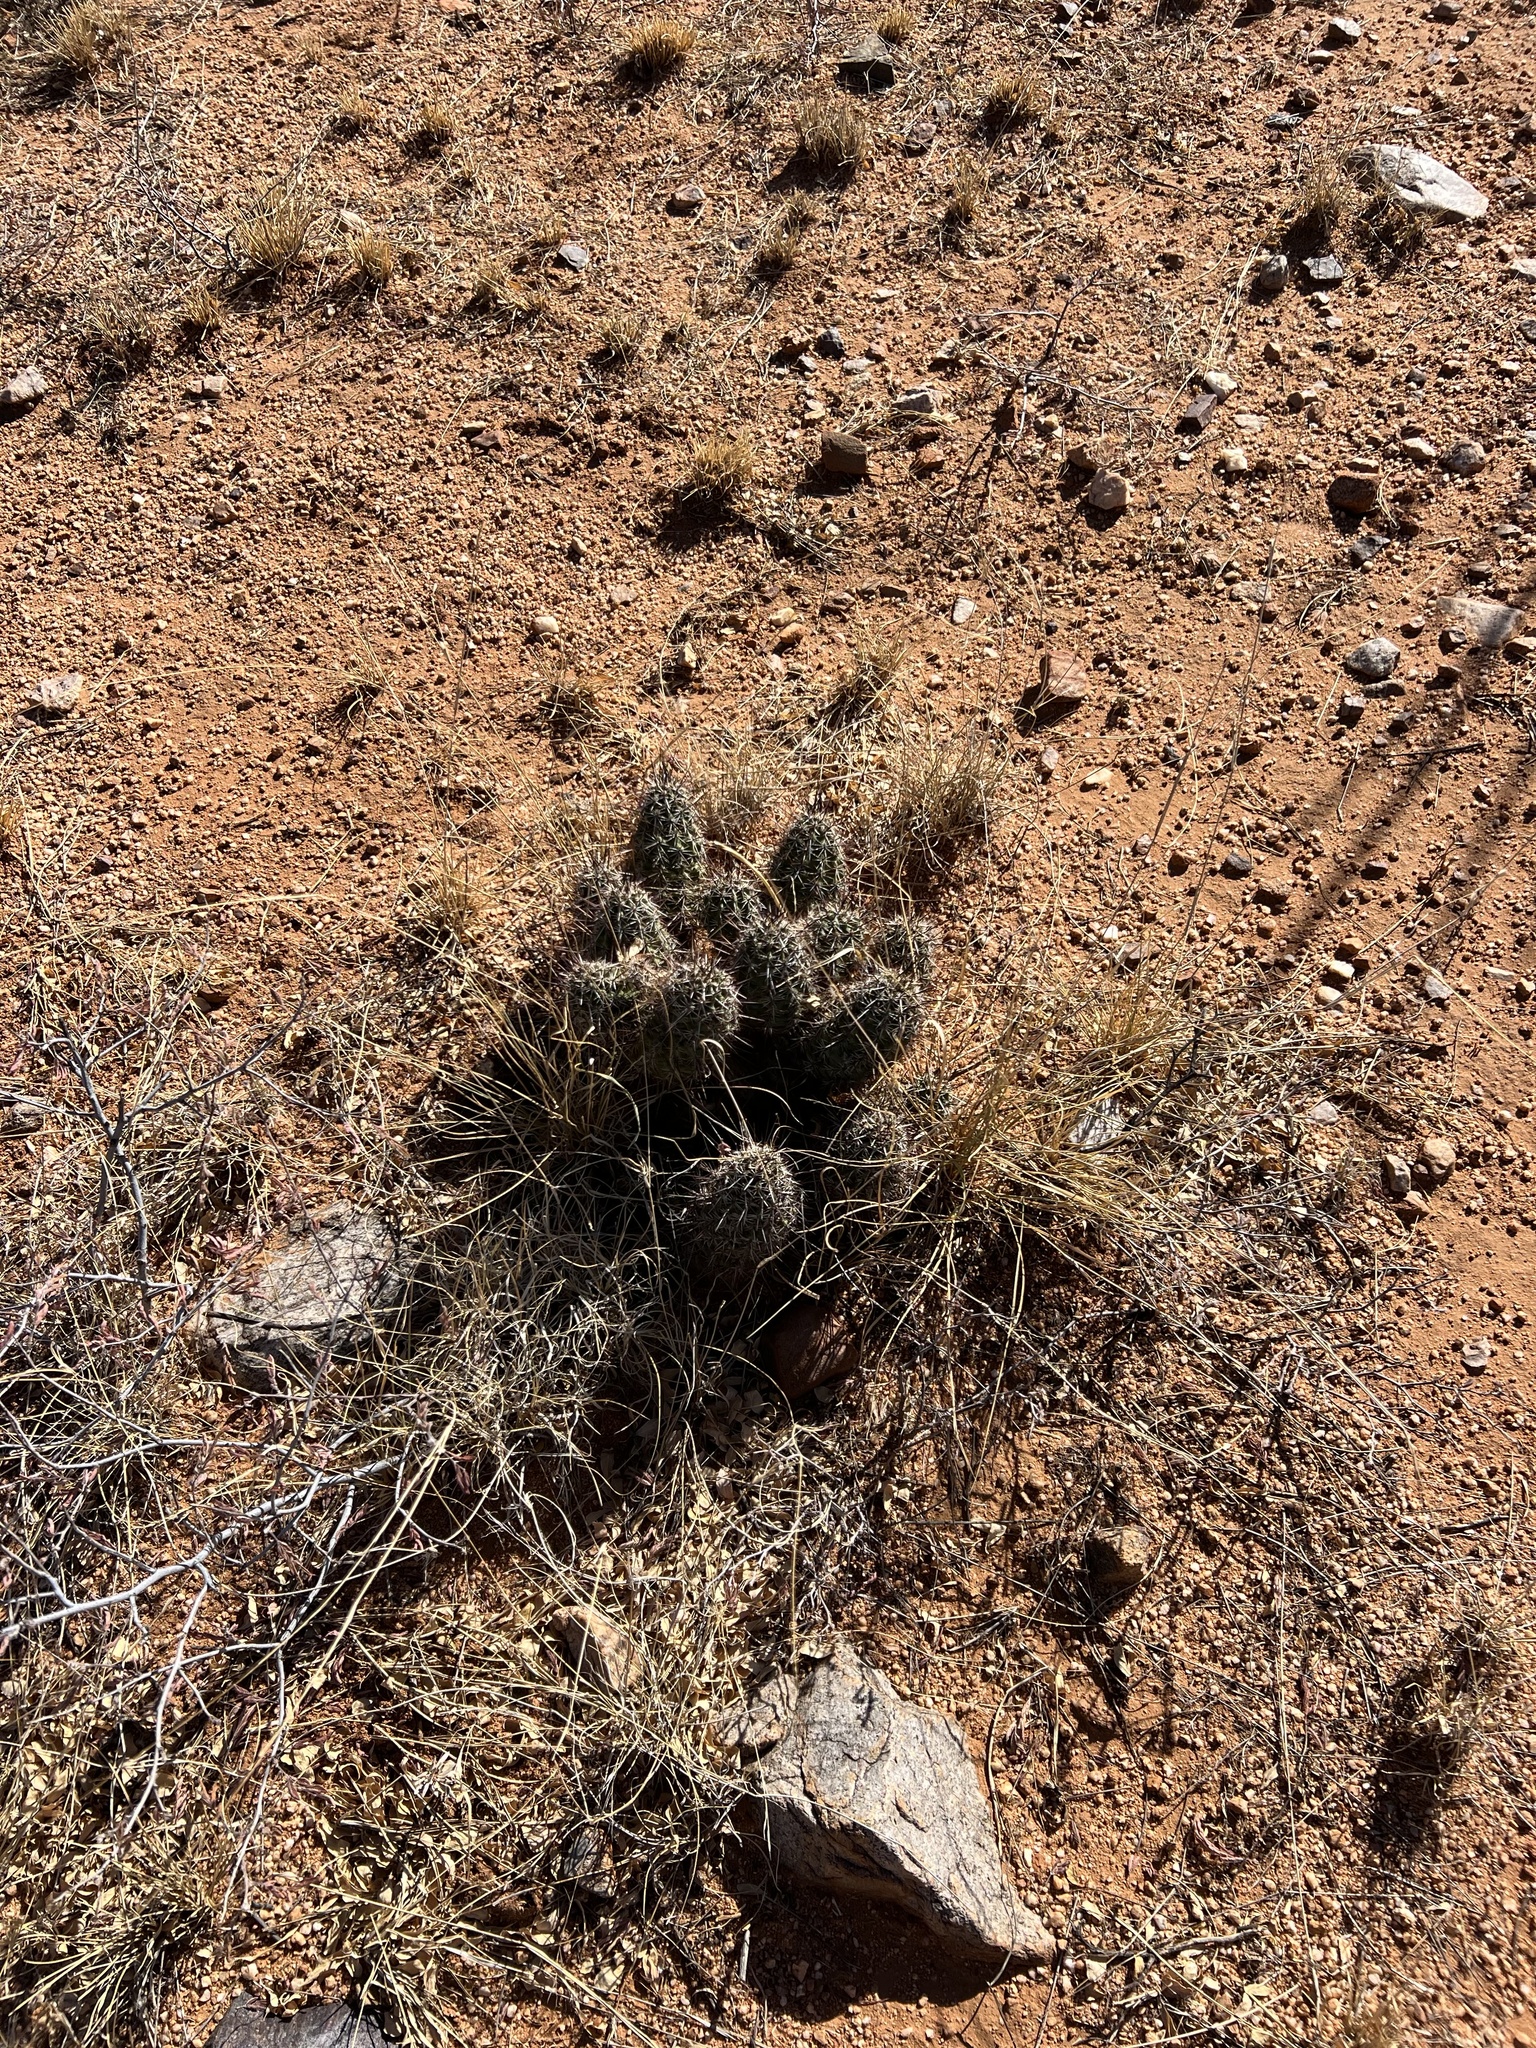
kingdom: Plantae
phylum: Tracheophyta
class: Magnoliopsida
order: Caryophyllales
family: Cactaceae
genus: Echinocereus
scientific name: Echinocereus fasciculatus
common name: Bundle hedgehog
